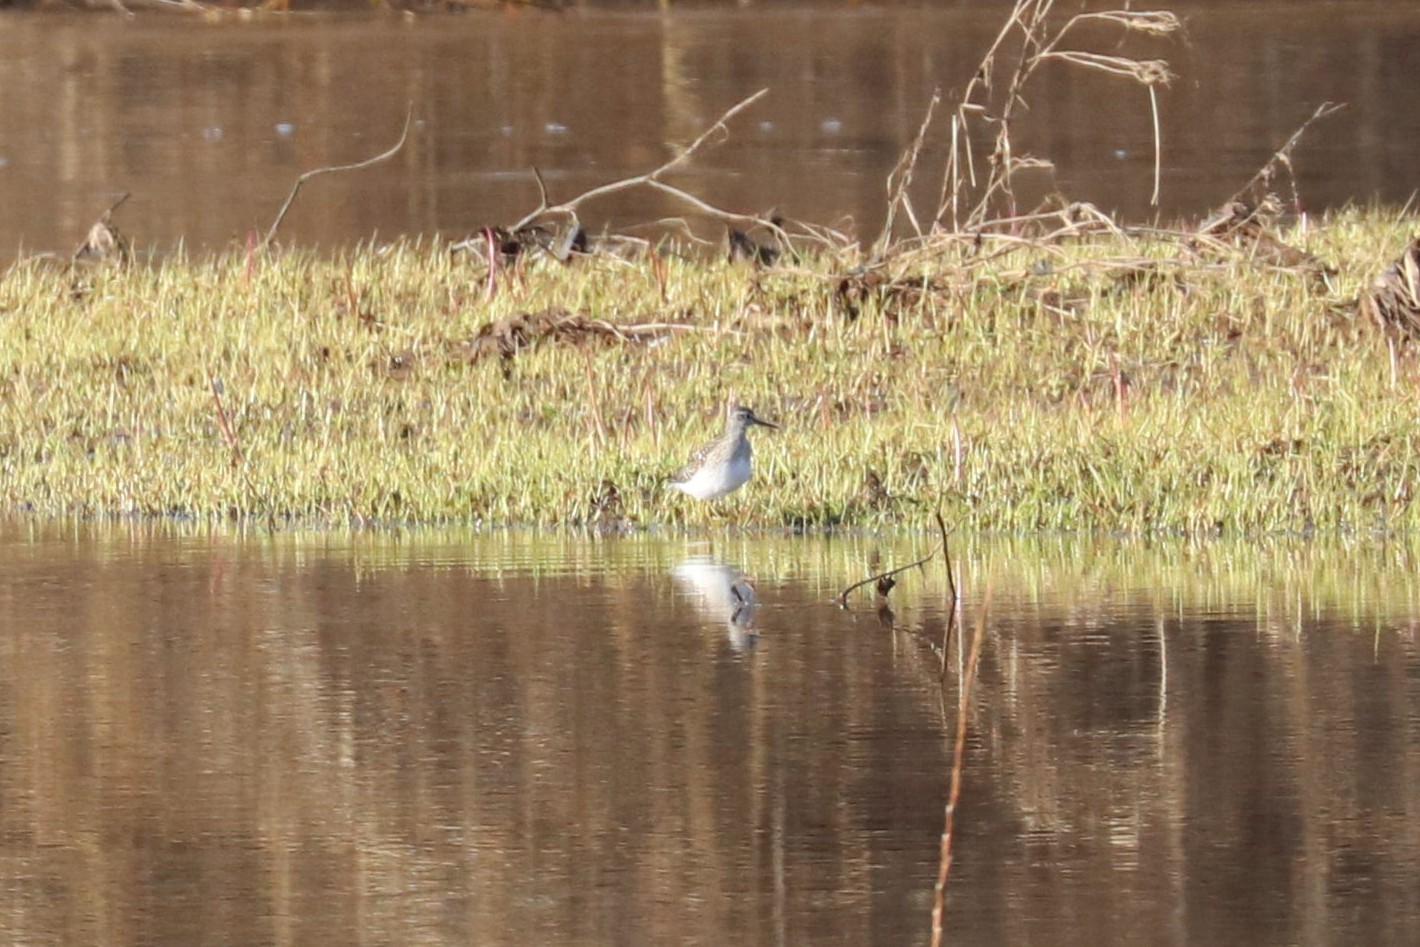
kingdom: Animalia
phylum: Chordata
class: Aves
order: Charadriiformes
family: Scolopacidae
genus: Tringa
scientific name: Tringa glareola
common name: Wood sandpiper
